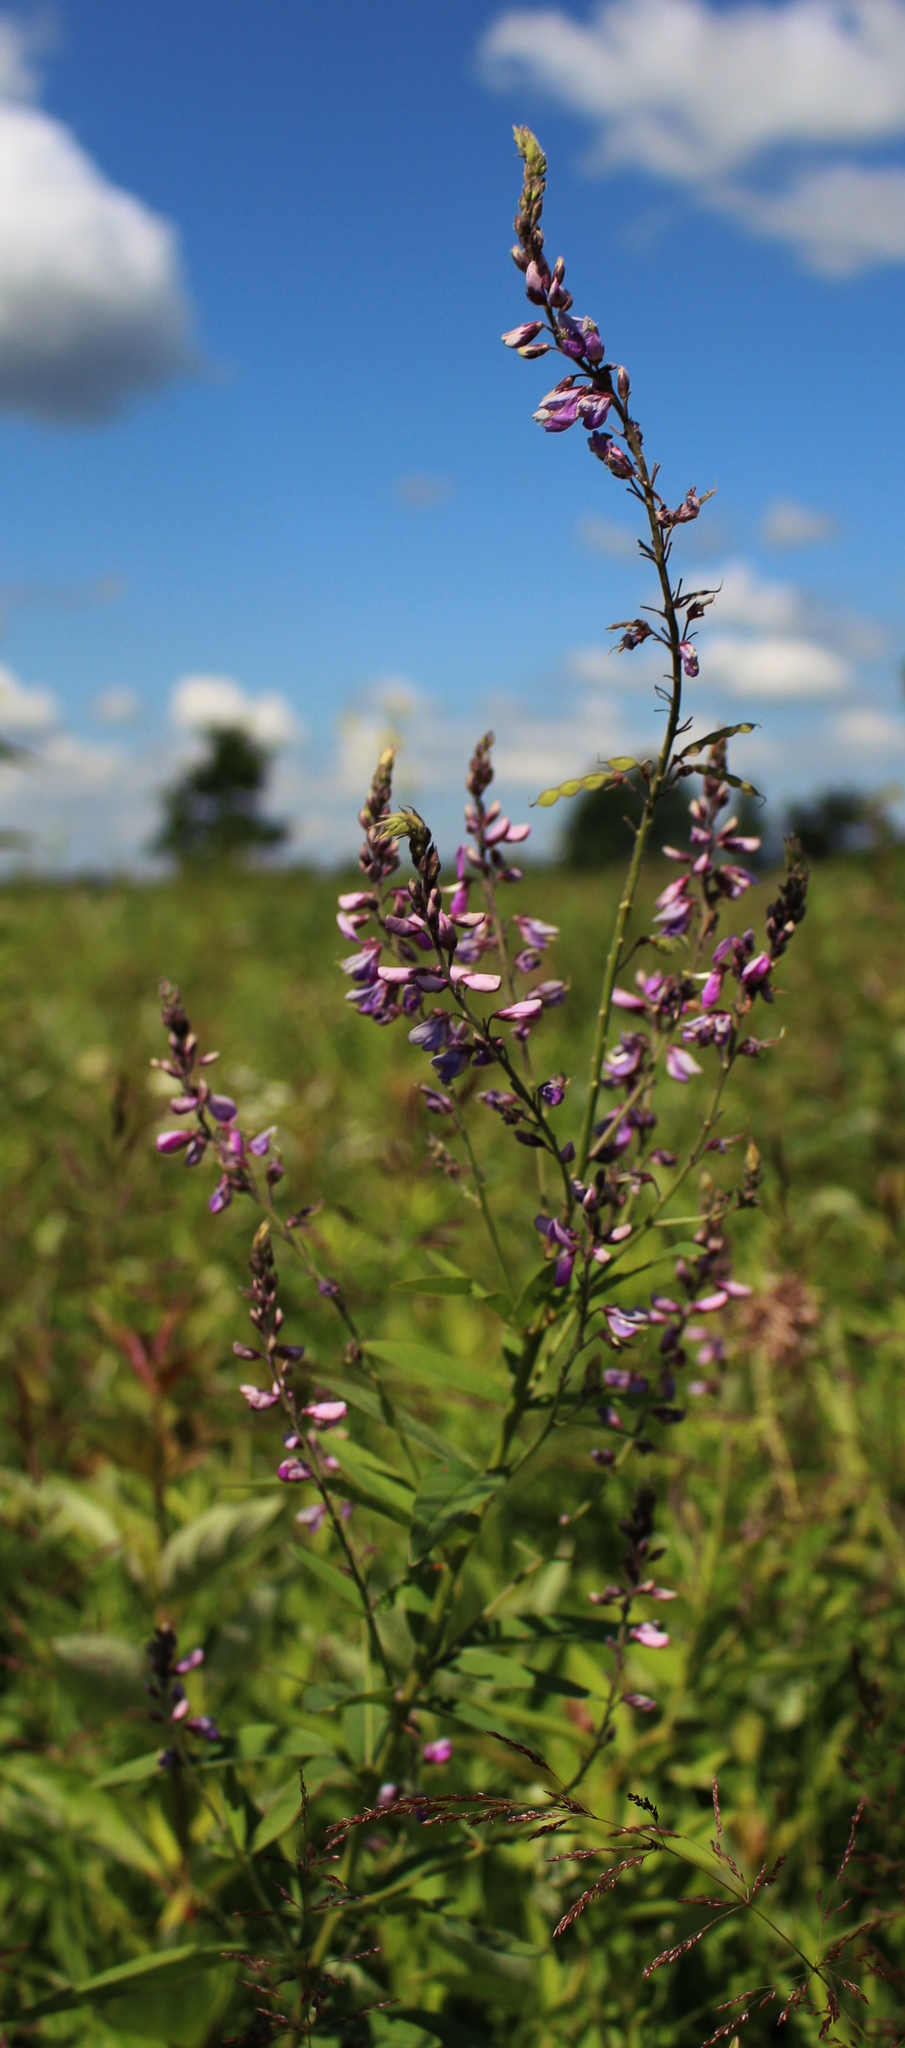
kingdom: Plantae
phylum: Tracheophyta
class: Magnoliopsida
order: Fabales
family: Fabaceae
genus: Desmodium
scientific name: Desmodium canadense
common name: Canada tick-trefoil
